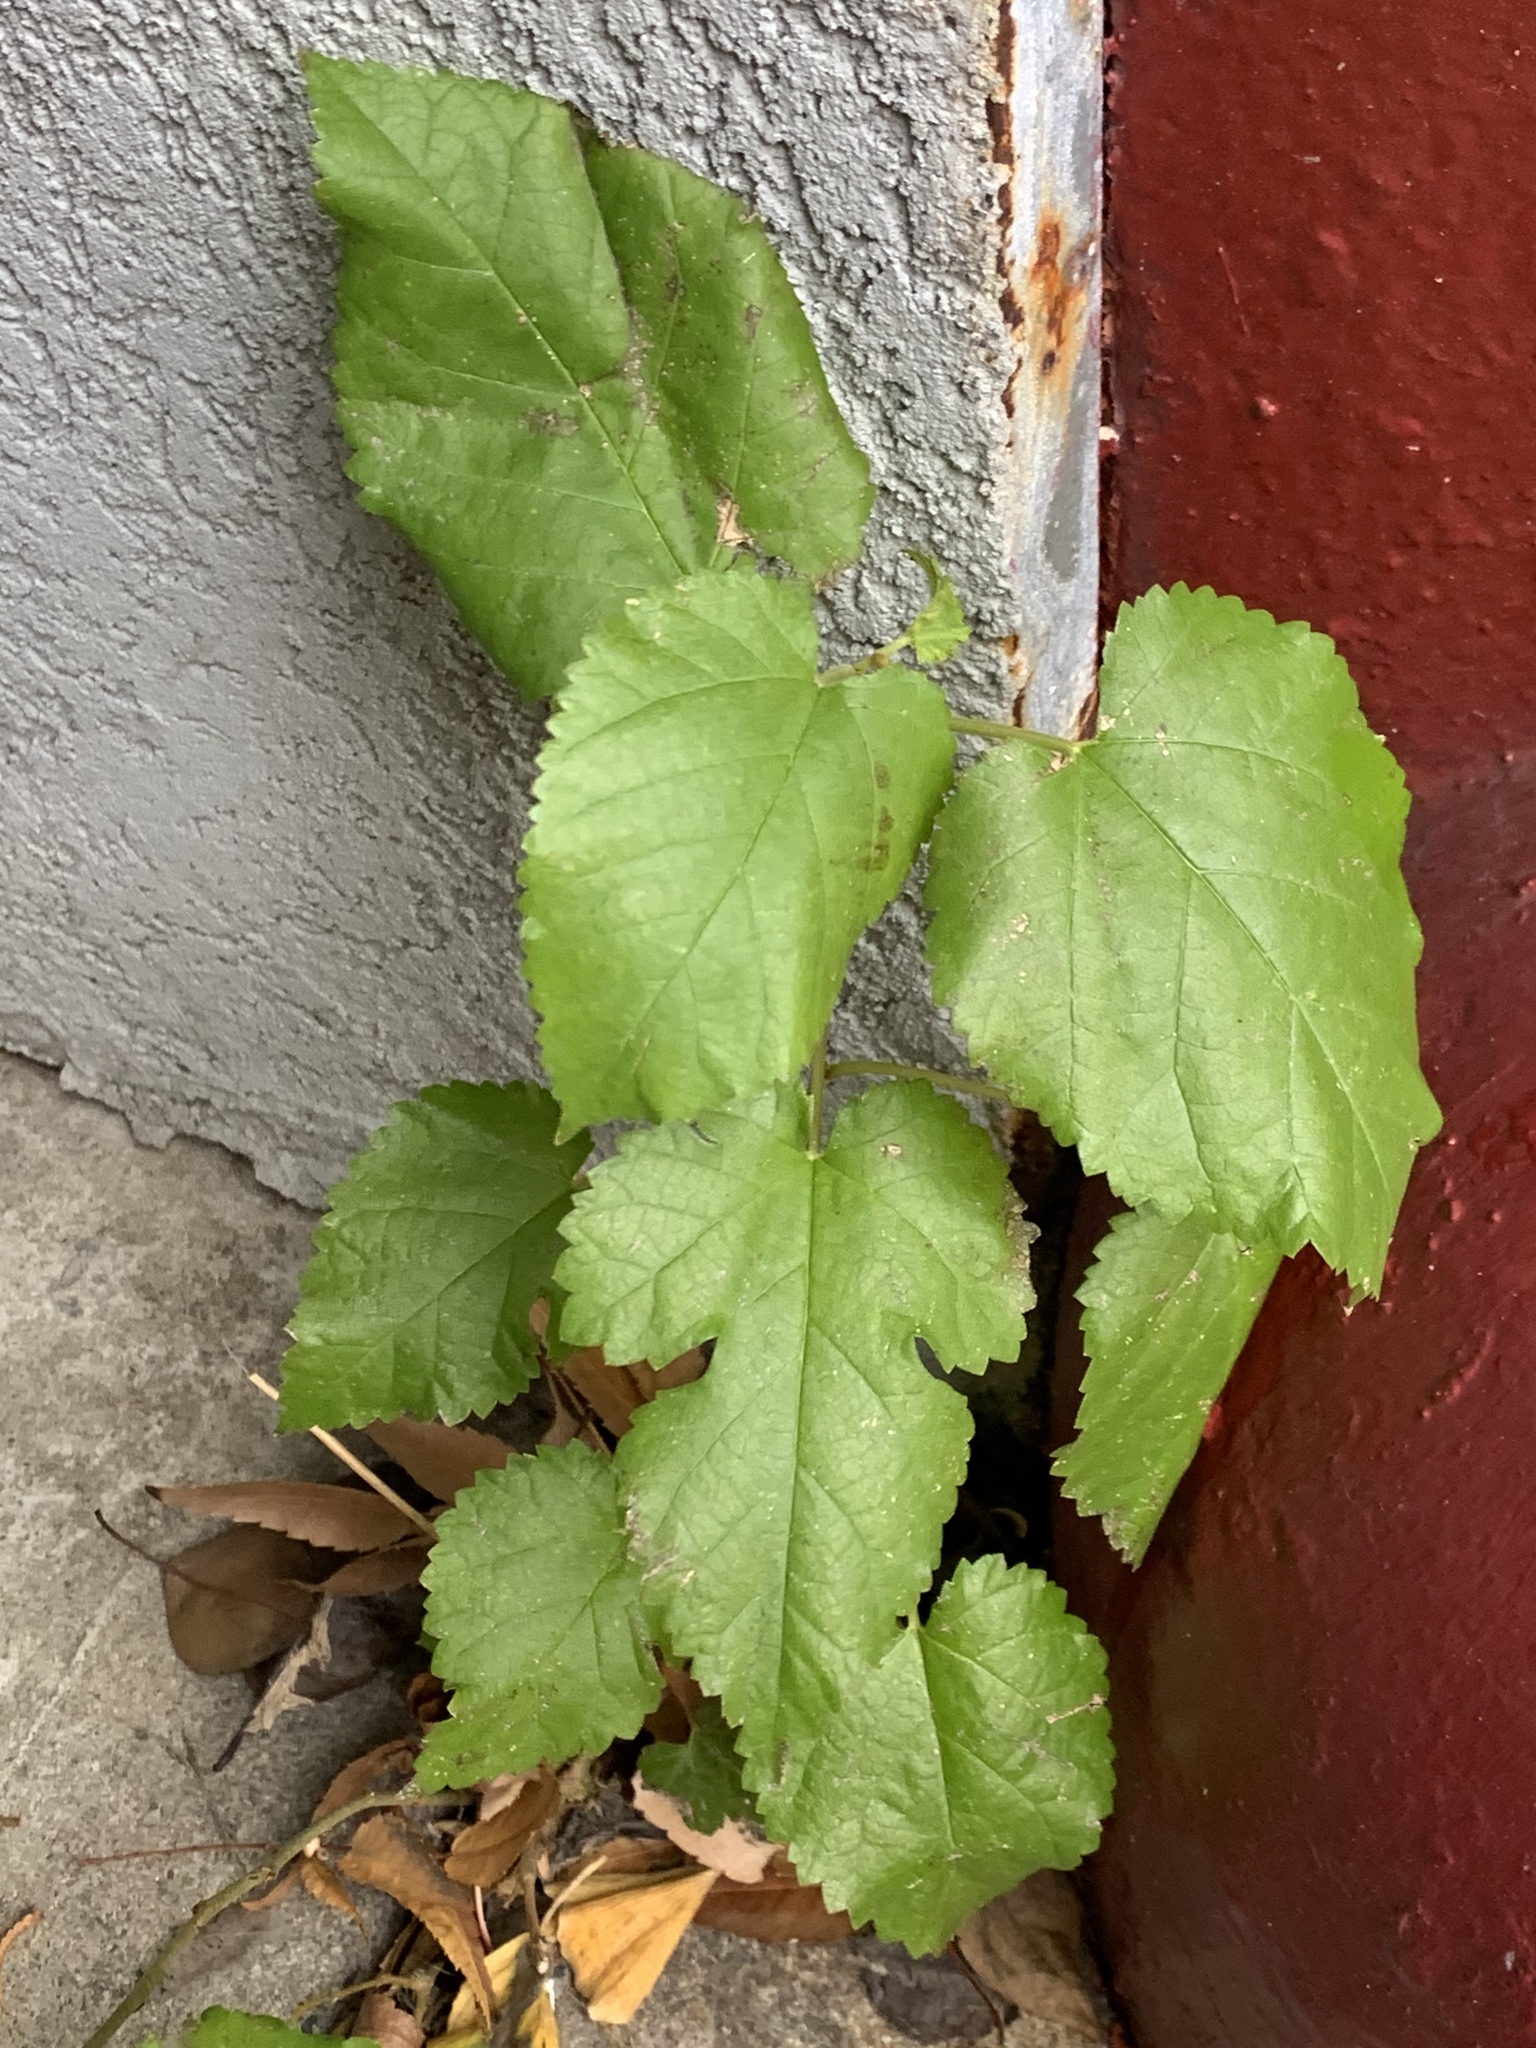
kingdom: Plantae
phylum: Tracheophyta
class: Magnoliopsida
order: Rosales
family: Moraceae
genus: Morus
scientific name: Morus alba
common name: White mulberry
